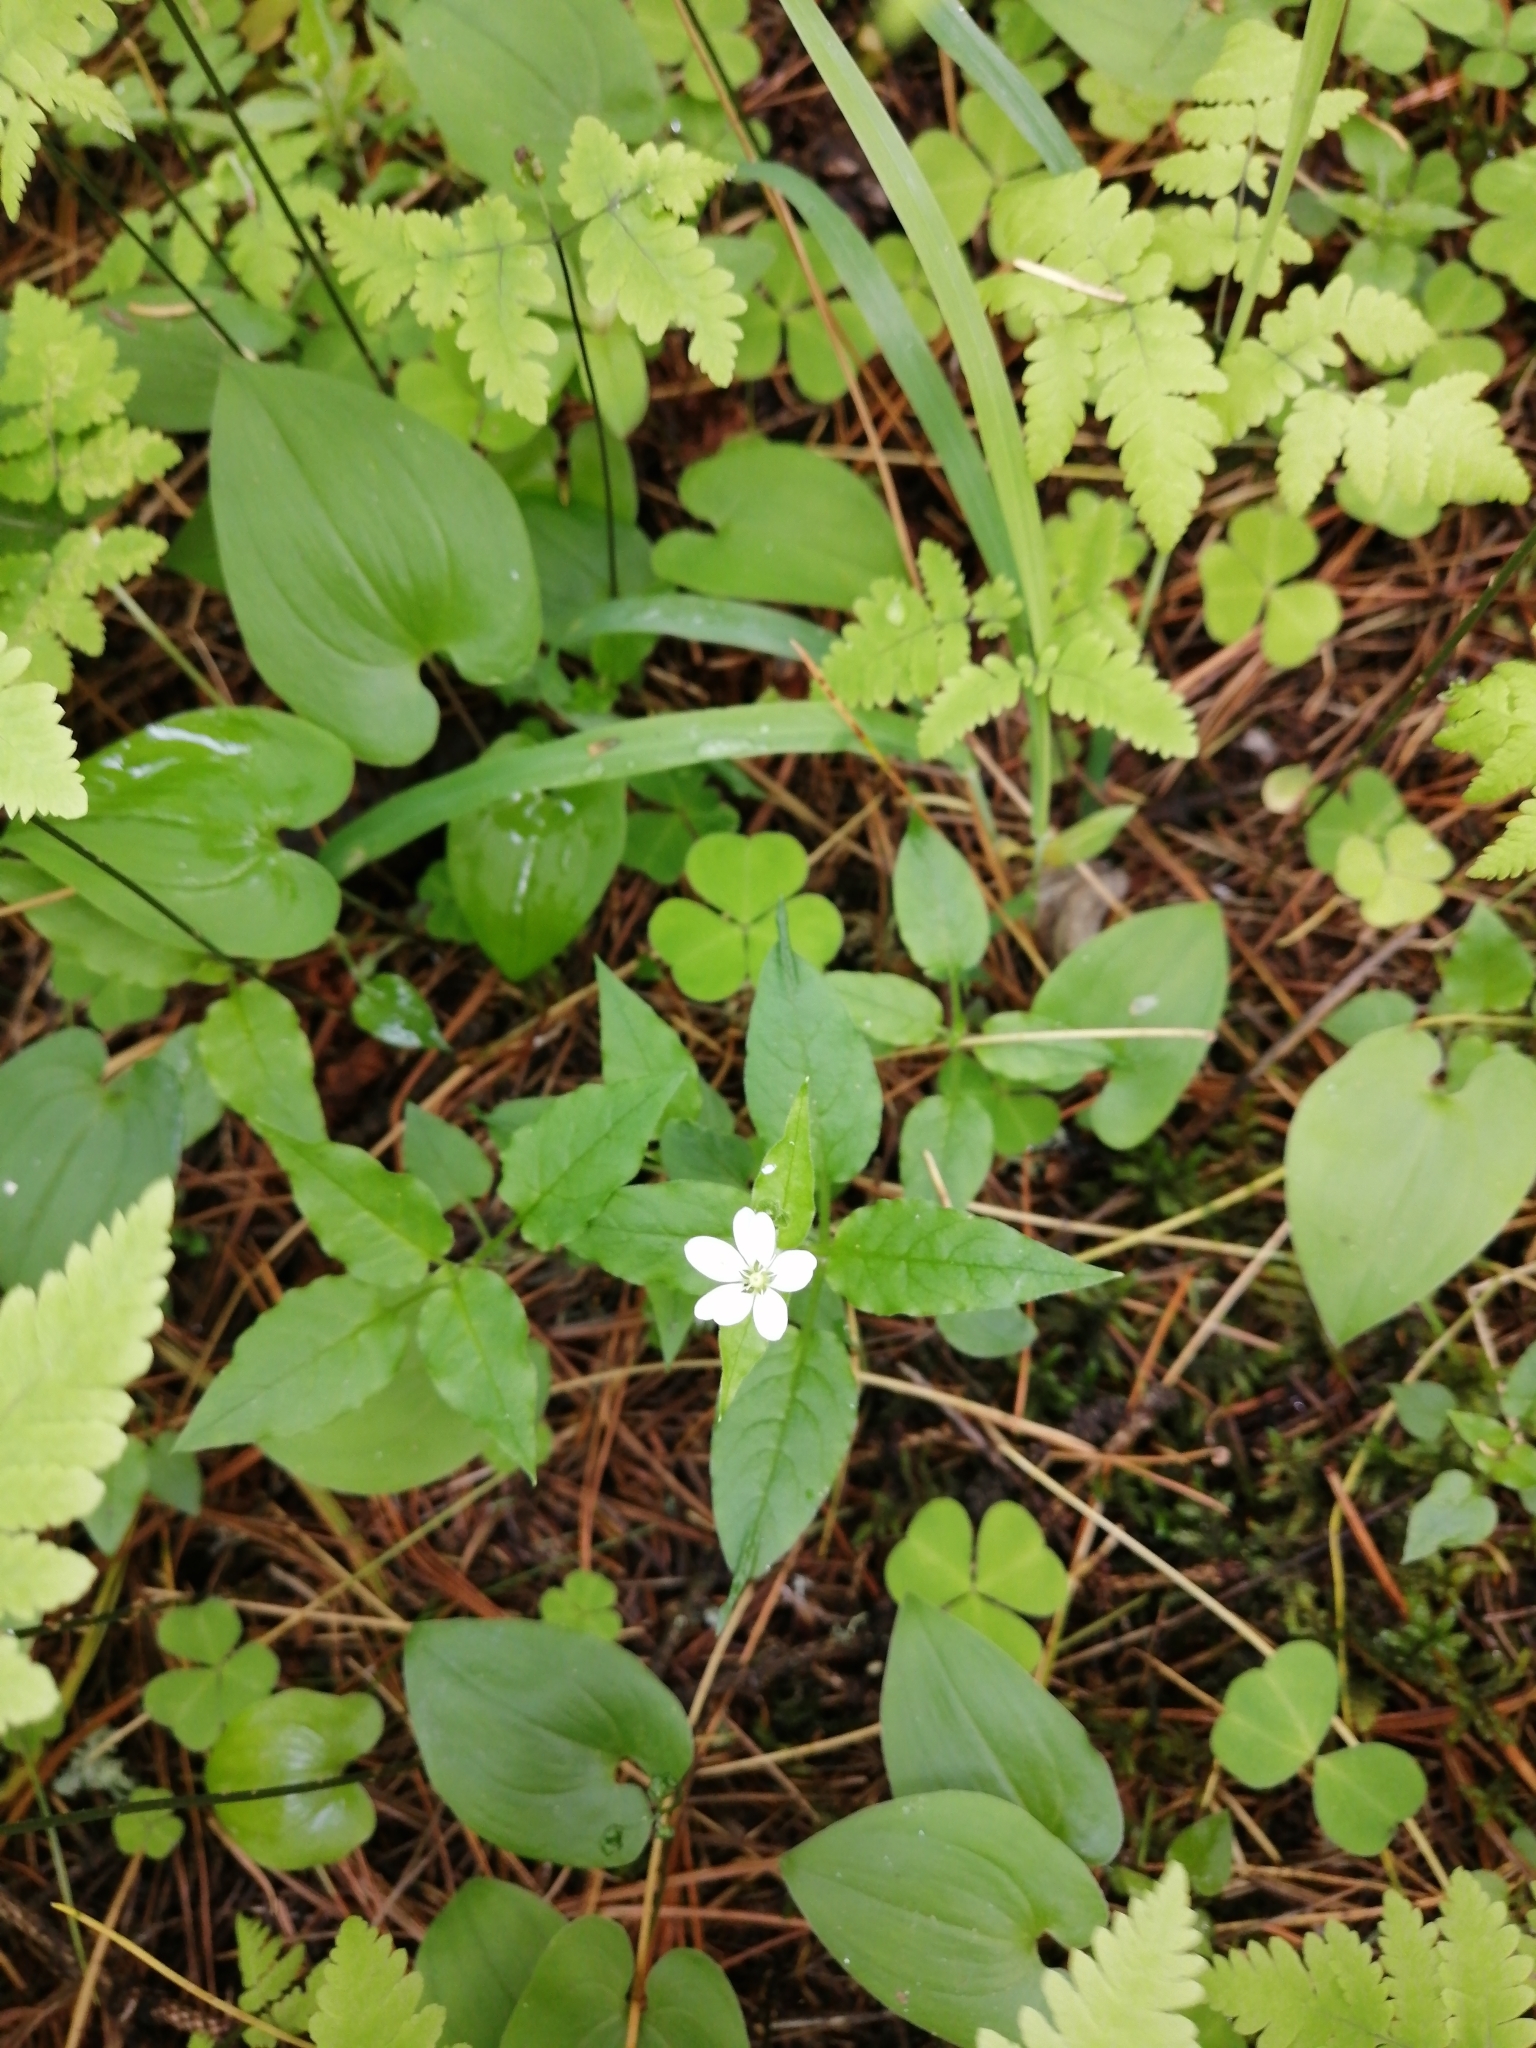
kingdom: Plantae
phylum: Tracheophyta
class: Magnoliopsida
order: Caryophyllales
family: Caryophyllaceae
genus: Stellaria
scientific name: Stellaria bungeana
